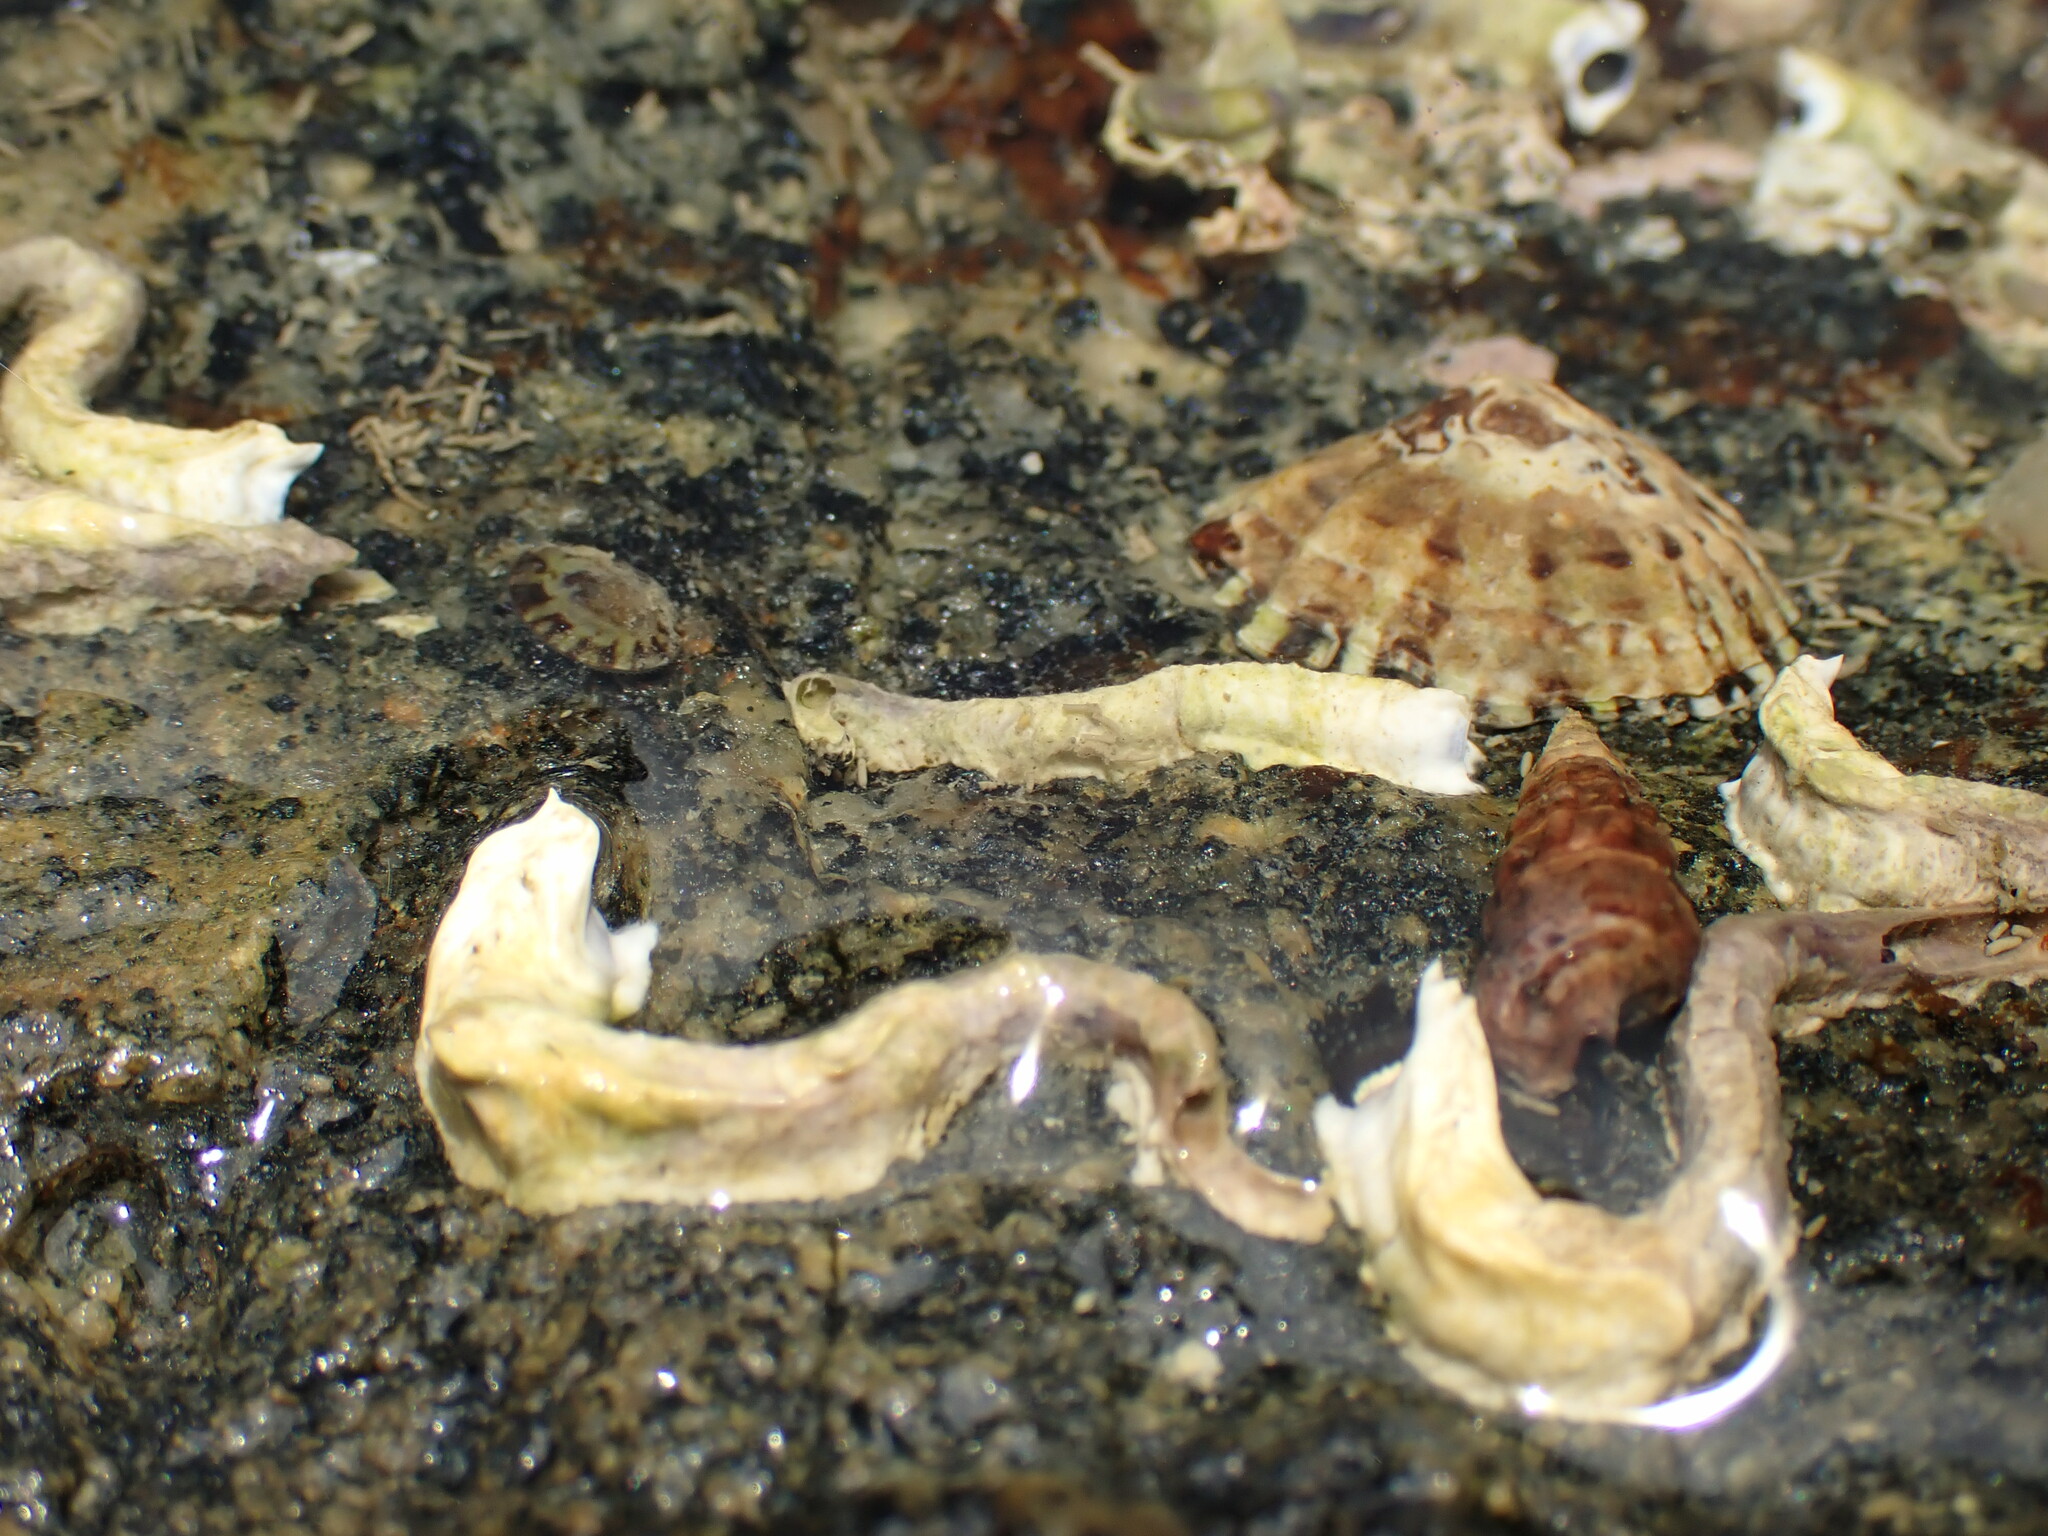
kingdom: Animalia
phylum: Annelida
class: Polychaeta
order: Sabellida
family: Serpulidae
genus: Spirobranchus
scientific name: Spirobranchus cariniferus
